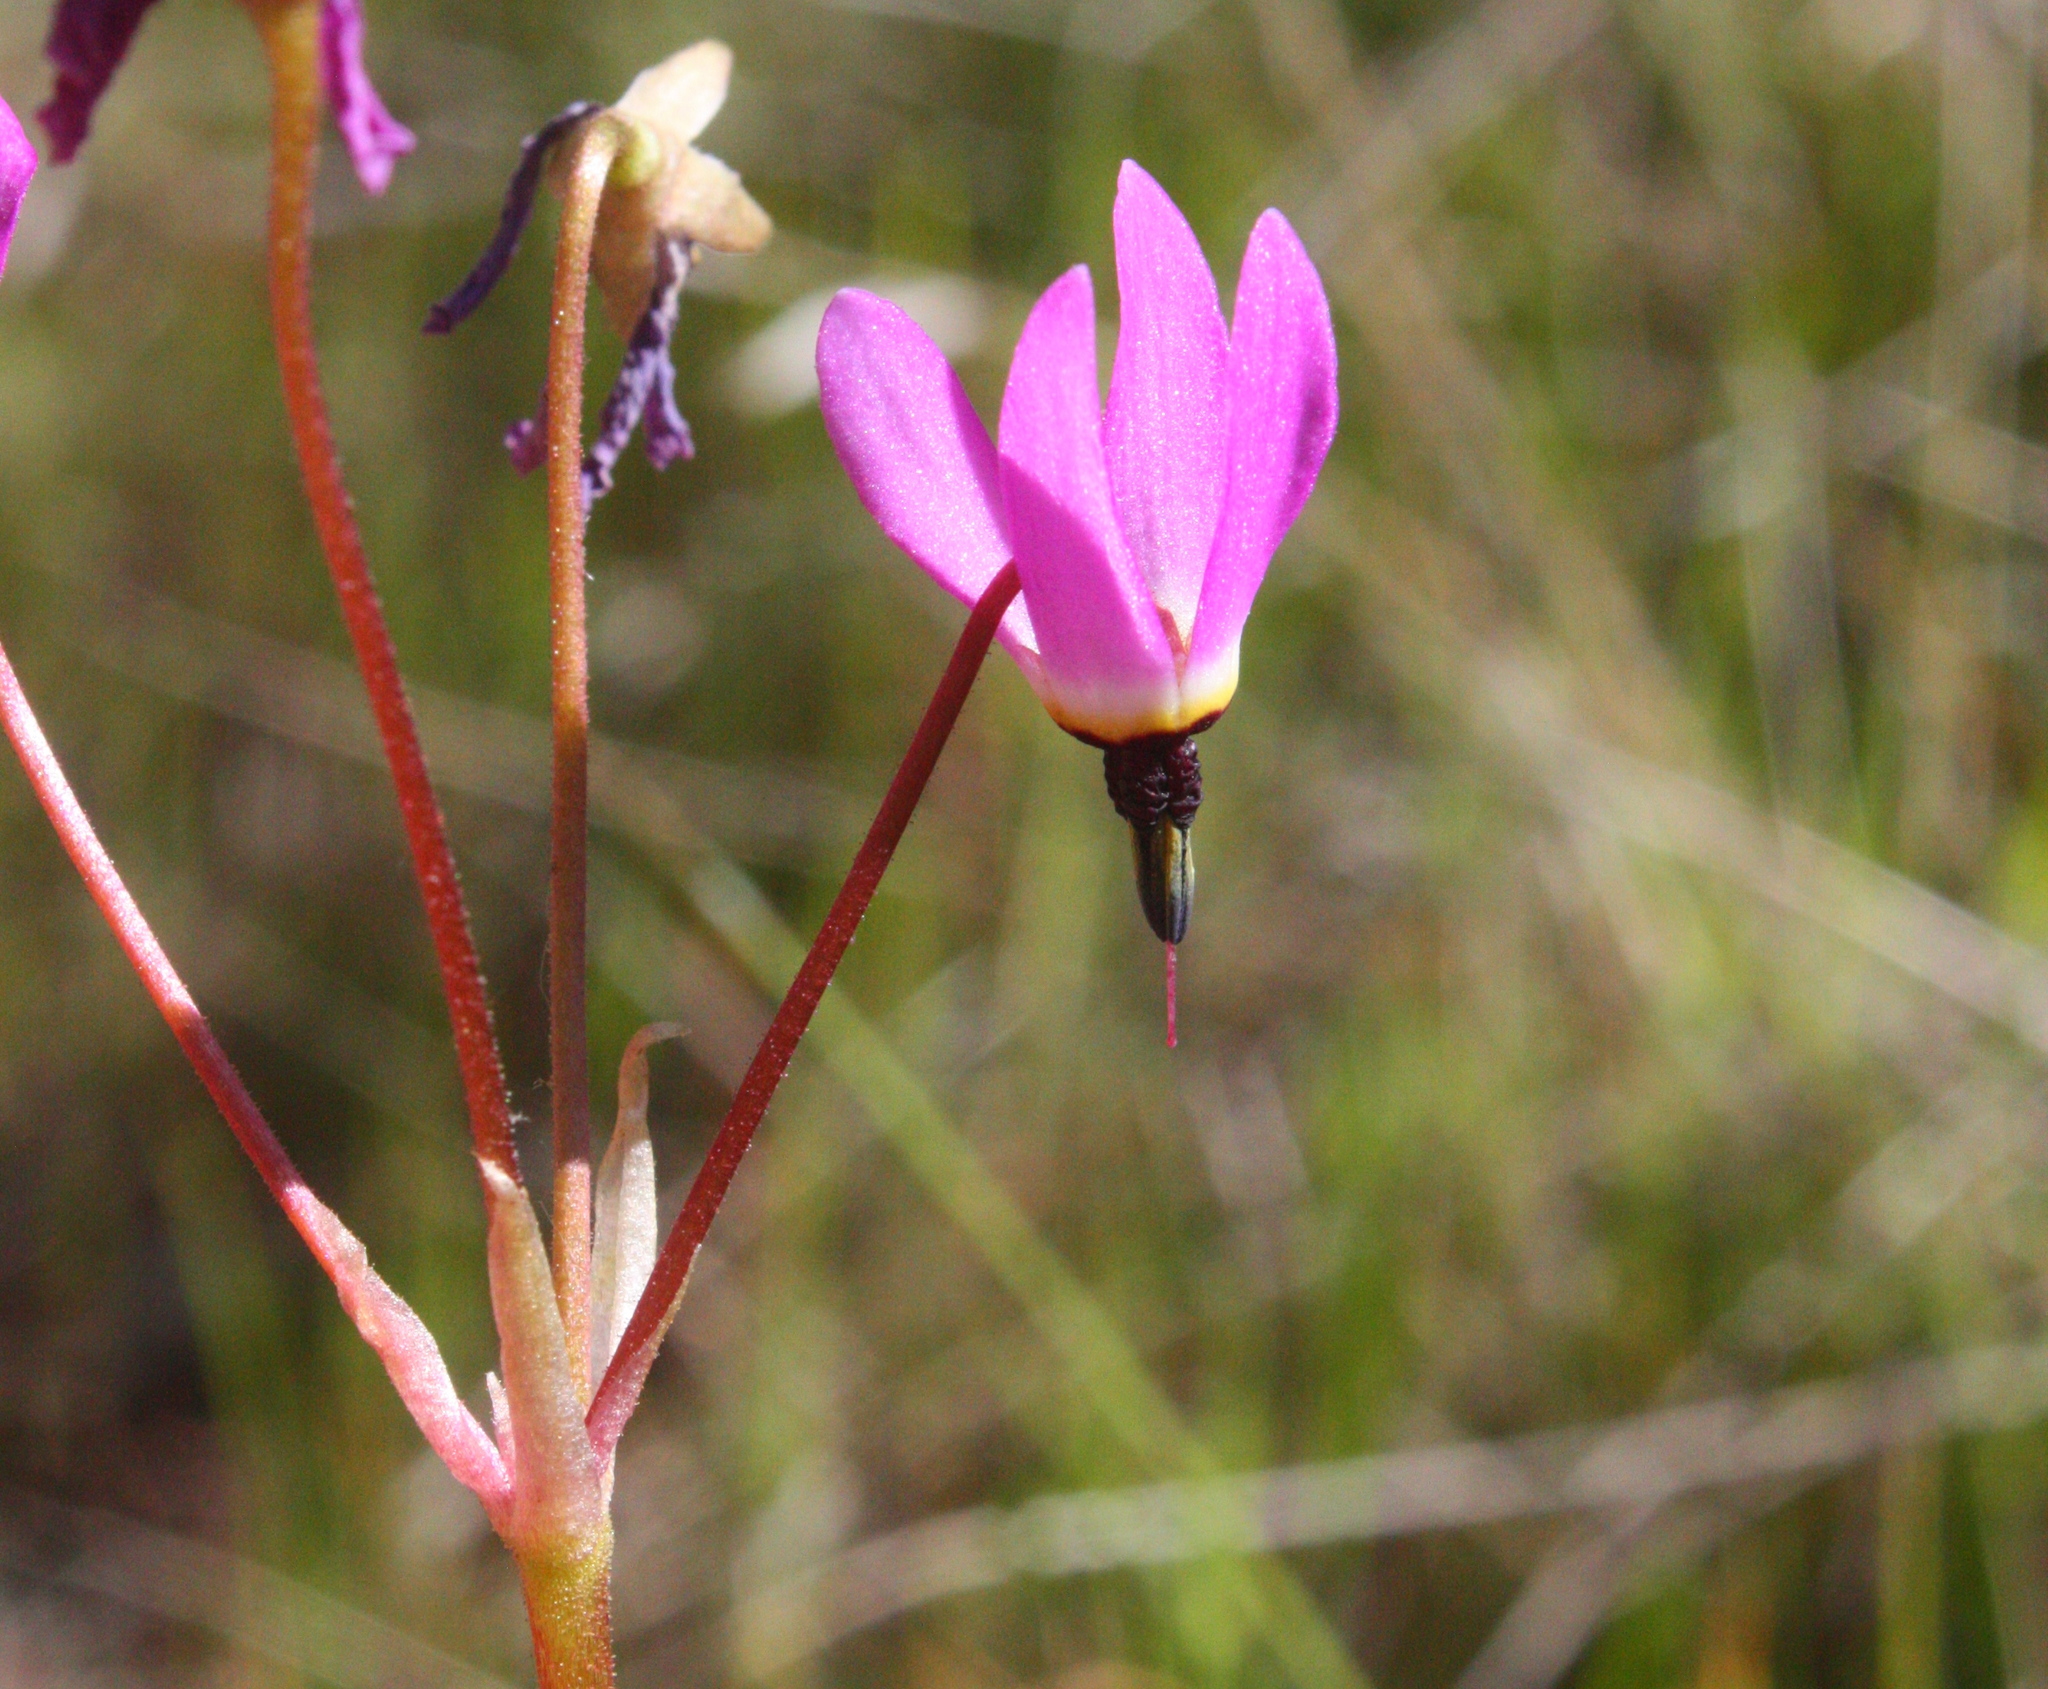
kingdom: Plantae
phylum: Tracheophyta
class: Magnoliopsida
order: Ericales
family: Primulaceae
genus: Dodecatheon
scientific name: Dodecatheon hendersonii
